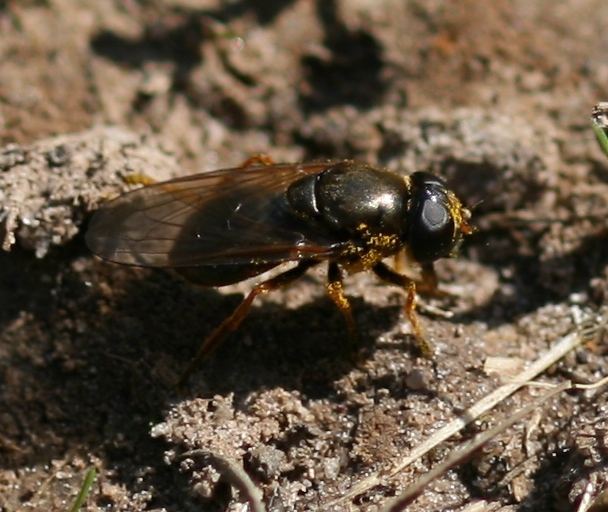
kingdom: Animalia
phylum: Arthropoda
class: Insecta
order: Diptera
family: Syrphidae
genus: Cheilosia
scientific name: Cheilosia fraterna
